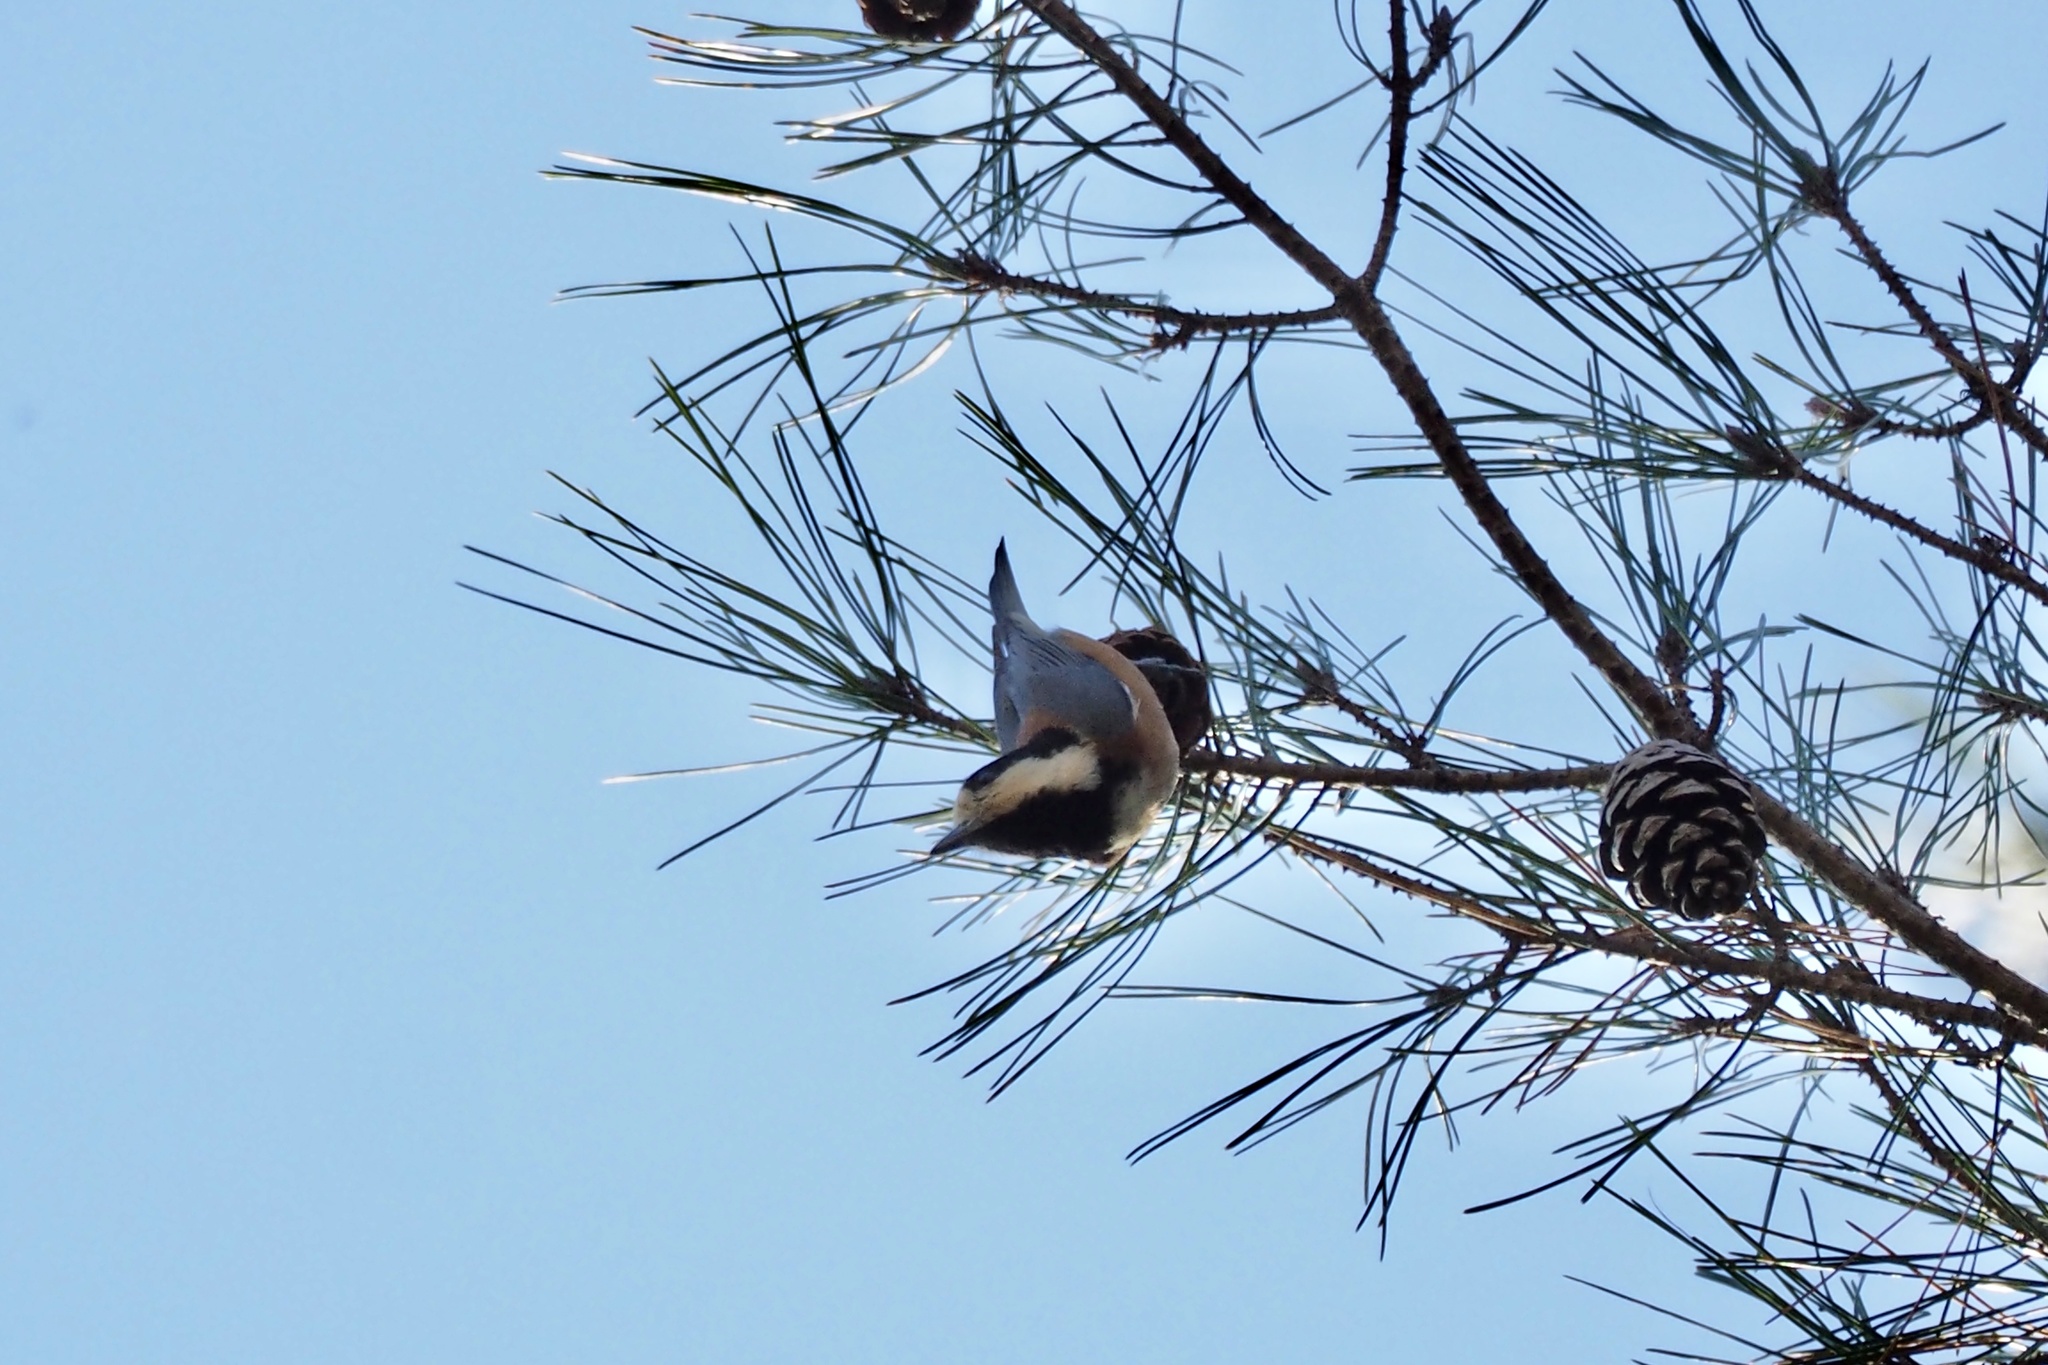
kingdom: Animalia
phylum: Chordata
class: Aves
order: Passeriformes
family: Paridae
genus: Poecile
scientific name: Poecile varius
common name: Varied tit
